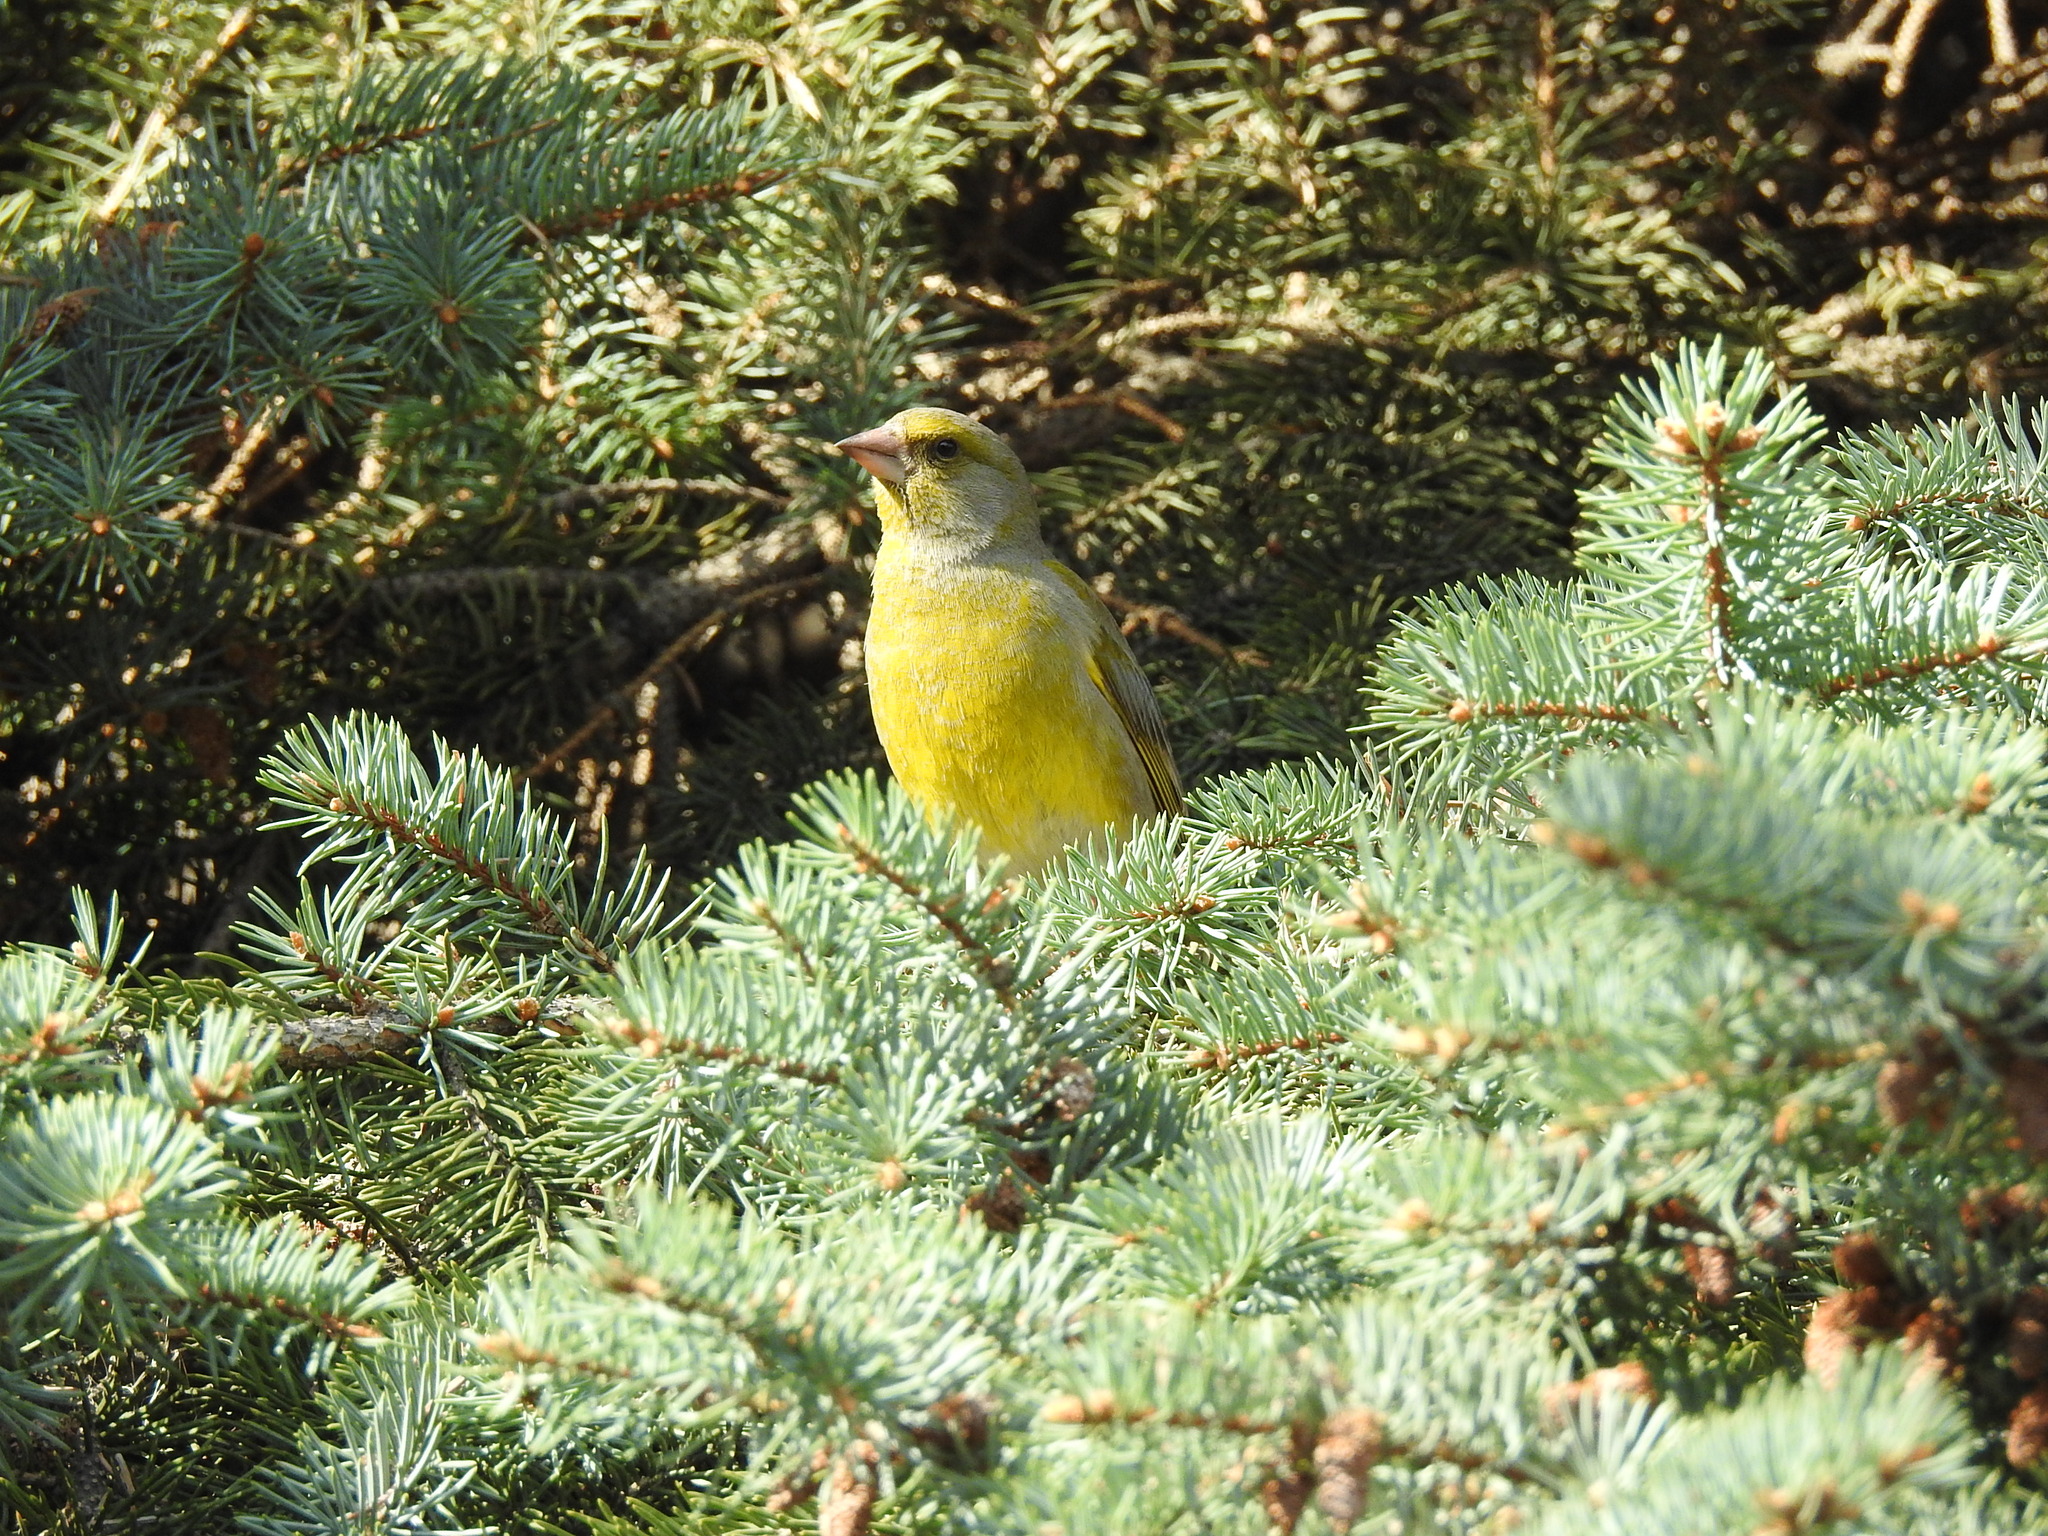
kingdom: Plantae
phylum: Tracheophyta
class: Liliopsida
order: Poales
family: Poaceae
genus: Chloris
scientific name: Chloris chloris
